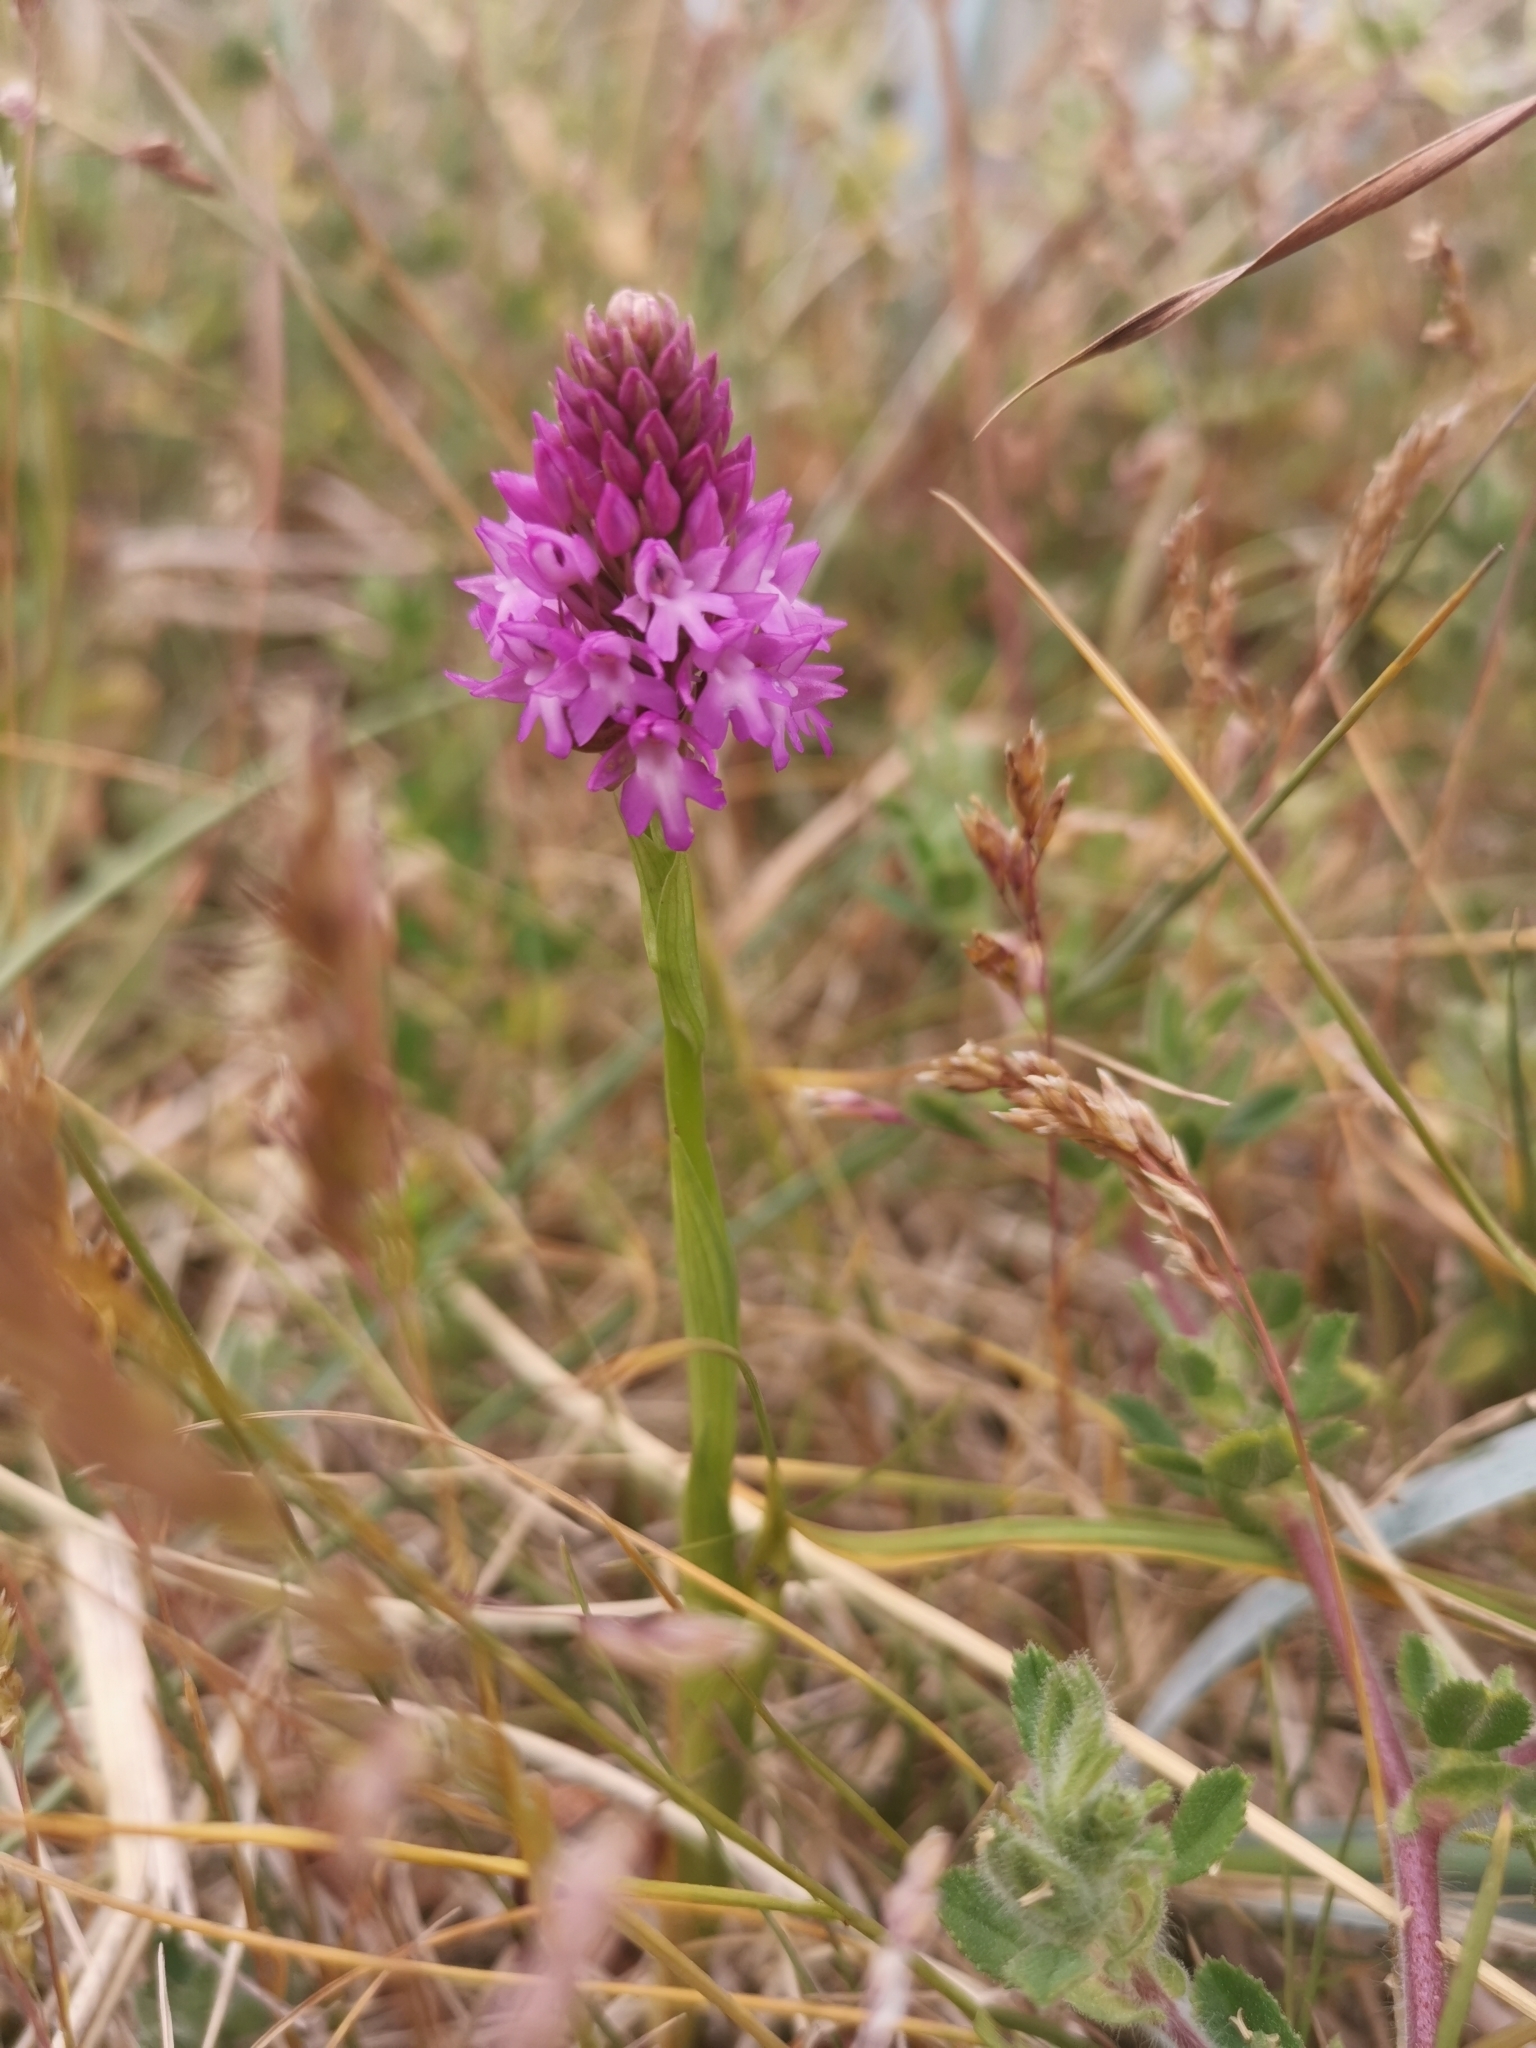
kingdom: Plantae
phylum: Tracheophyta
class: Liliopsida
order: Asparagales
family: Orchidaceae
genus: Anacamptis
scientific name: Anacamptis pyramidalis
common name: Pyramidal orchid
